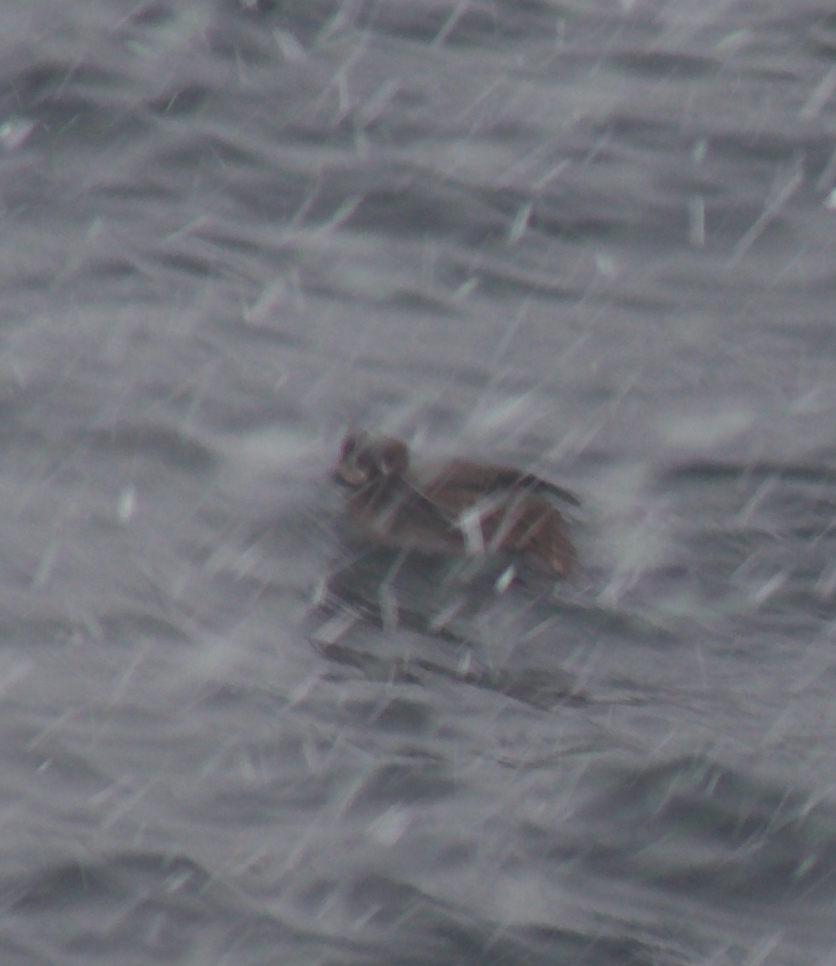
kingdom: Animalia
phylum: Chordata
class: Aves
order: Anseriformes
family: Anatidae
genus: Histrionicus
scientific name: Histrionicus histrionicus
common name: Harlequin duck
